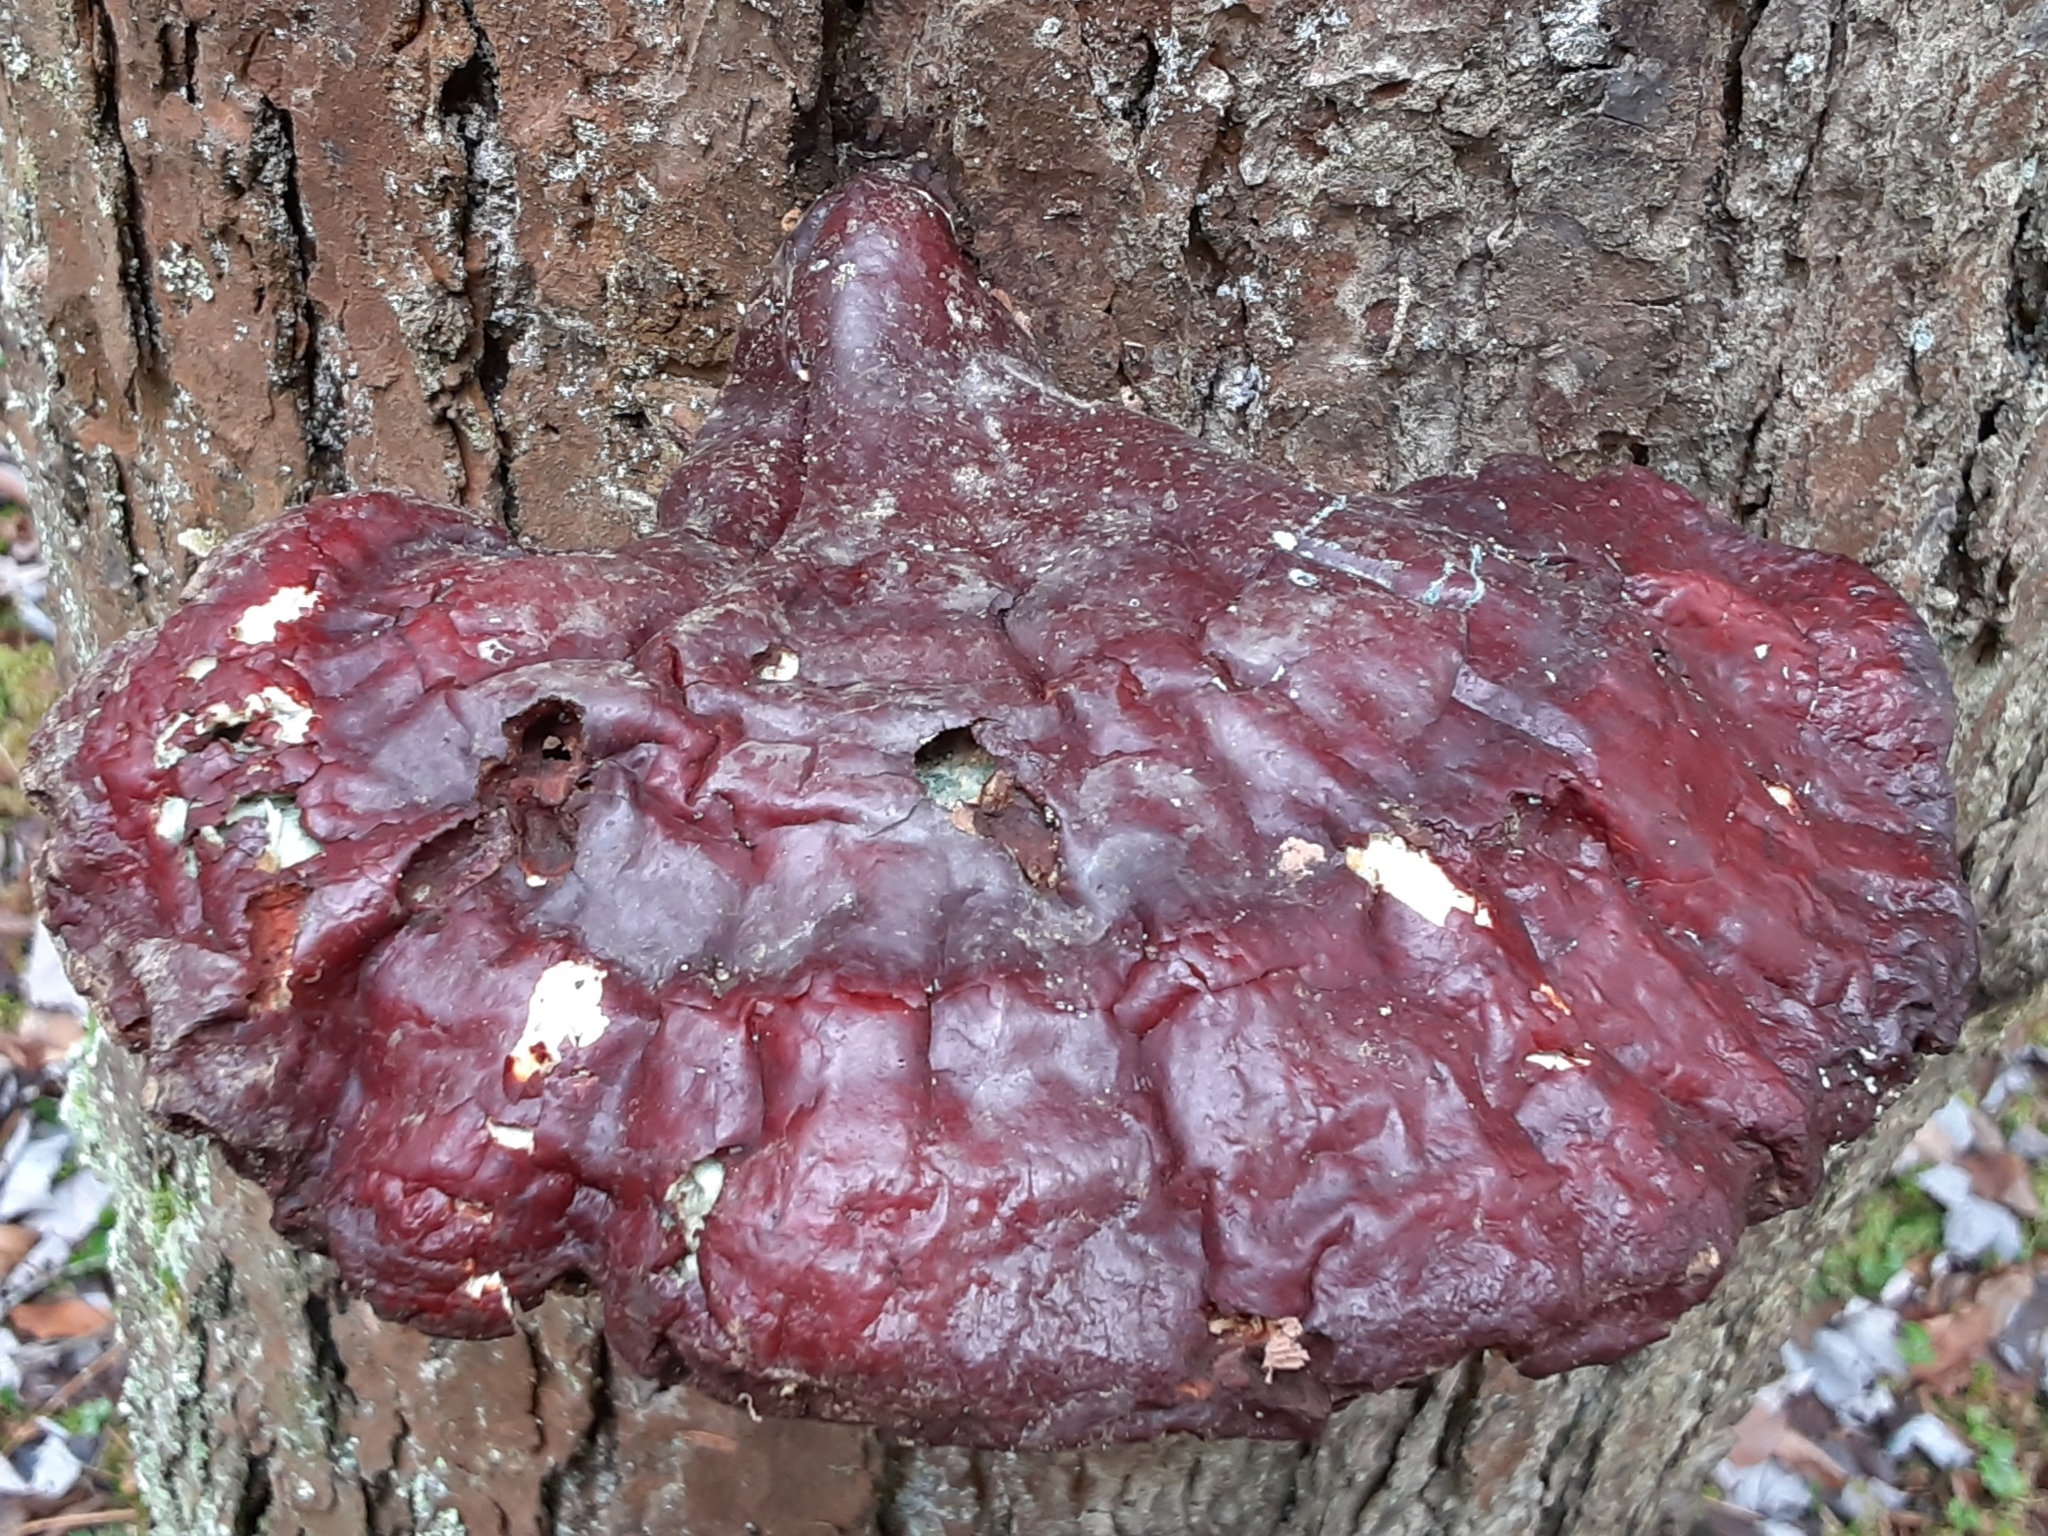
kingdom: Fungi
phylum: Basidiomycota
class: Agaricomycetes
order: Polyporales
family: Polyporaceae
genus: Ganoderma
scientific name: Ganoderma tsugae
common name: Hemlock varnish shelf
